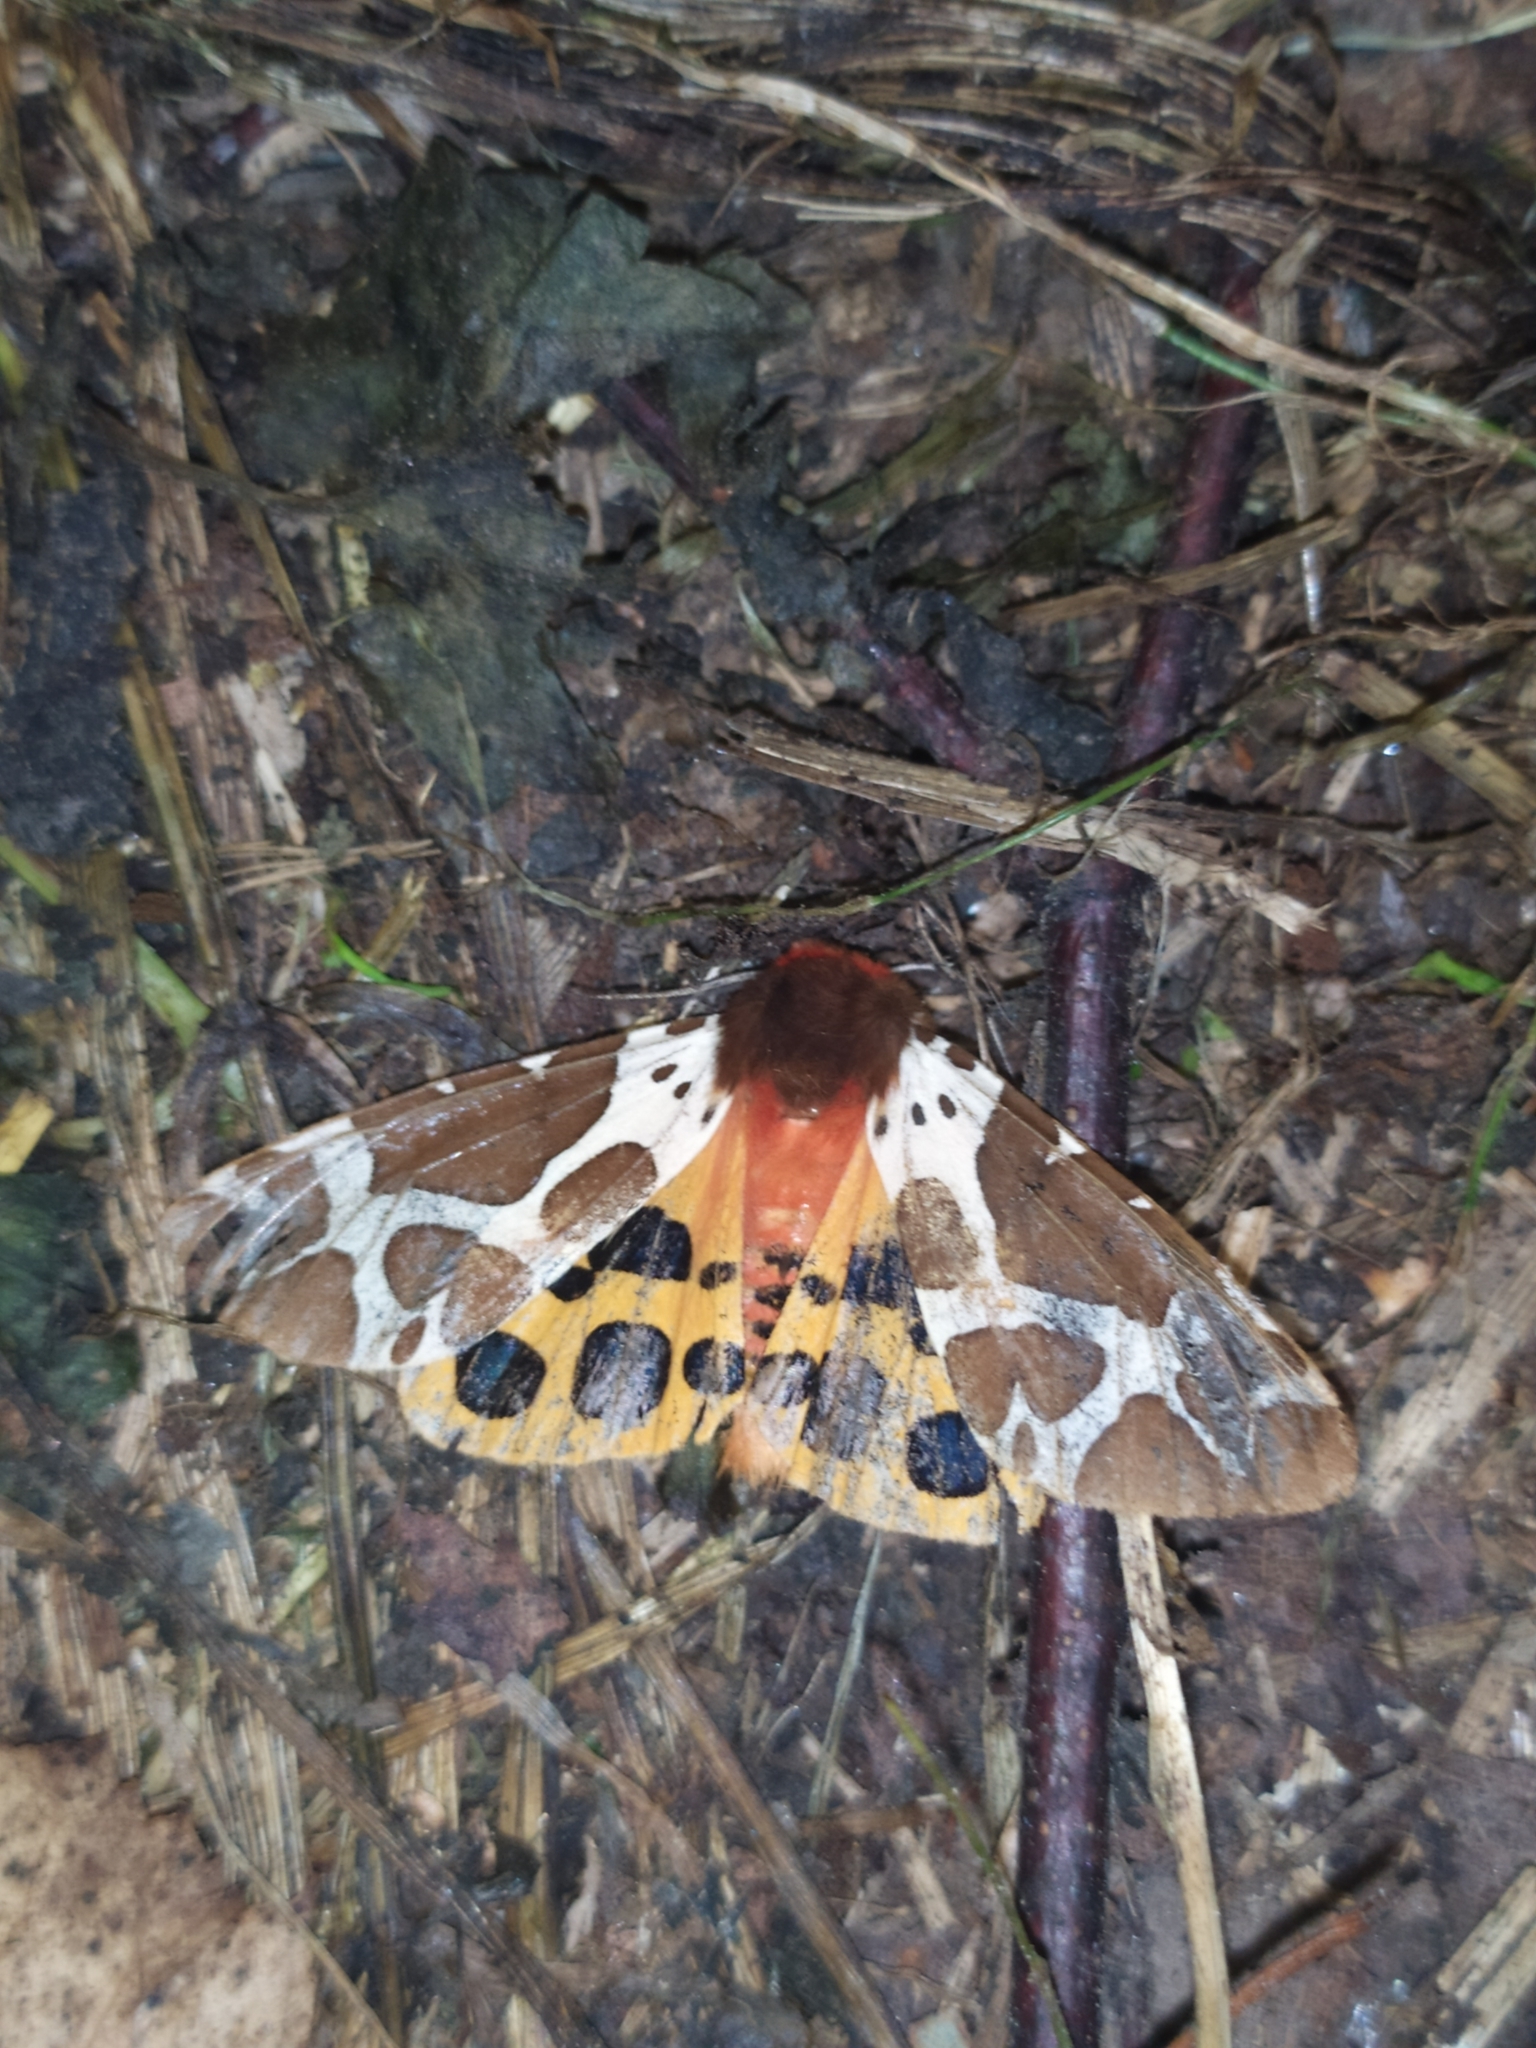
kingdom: Animalia
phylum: Arthropoda
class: Insecta
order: Lepidoptera
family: Erebidae
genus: Arctia
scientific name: Arctia caja
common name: Garden tiger
